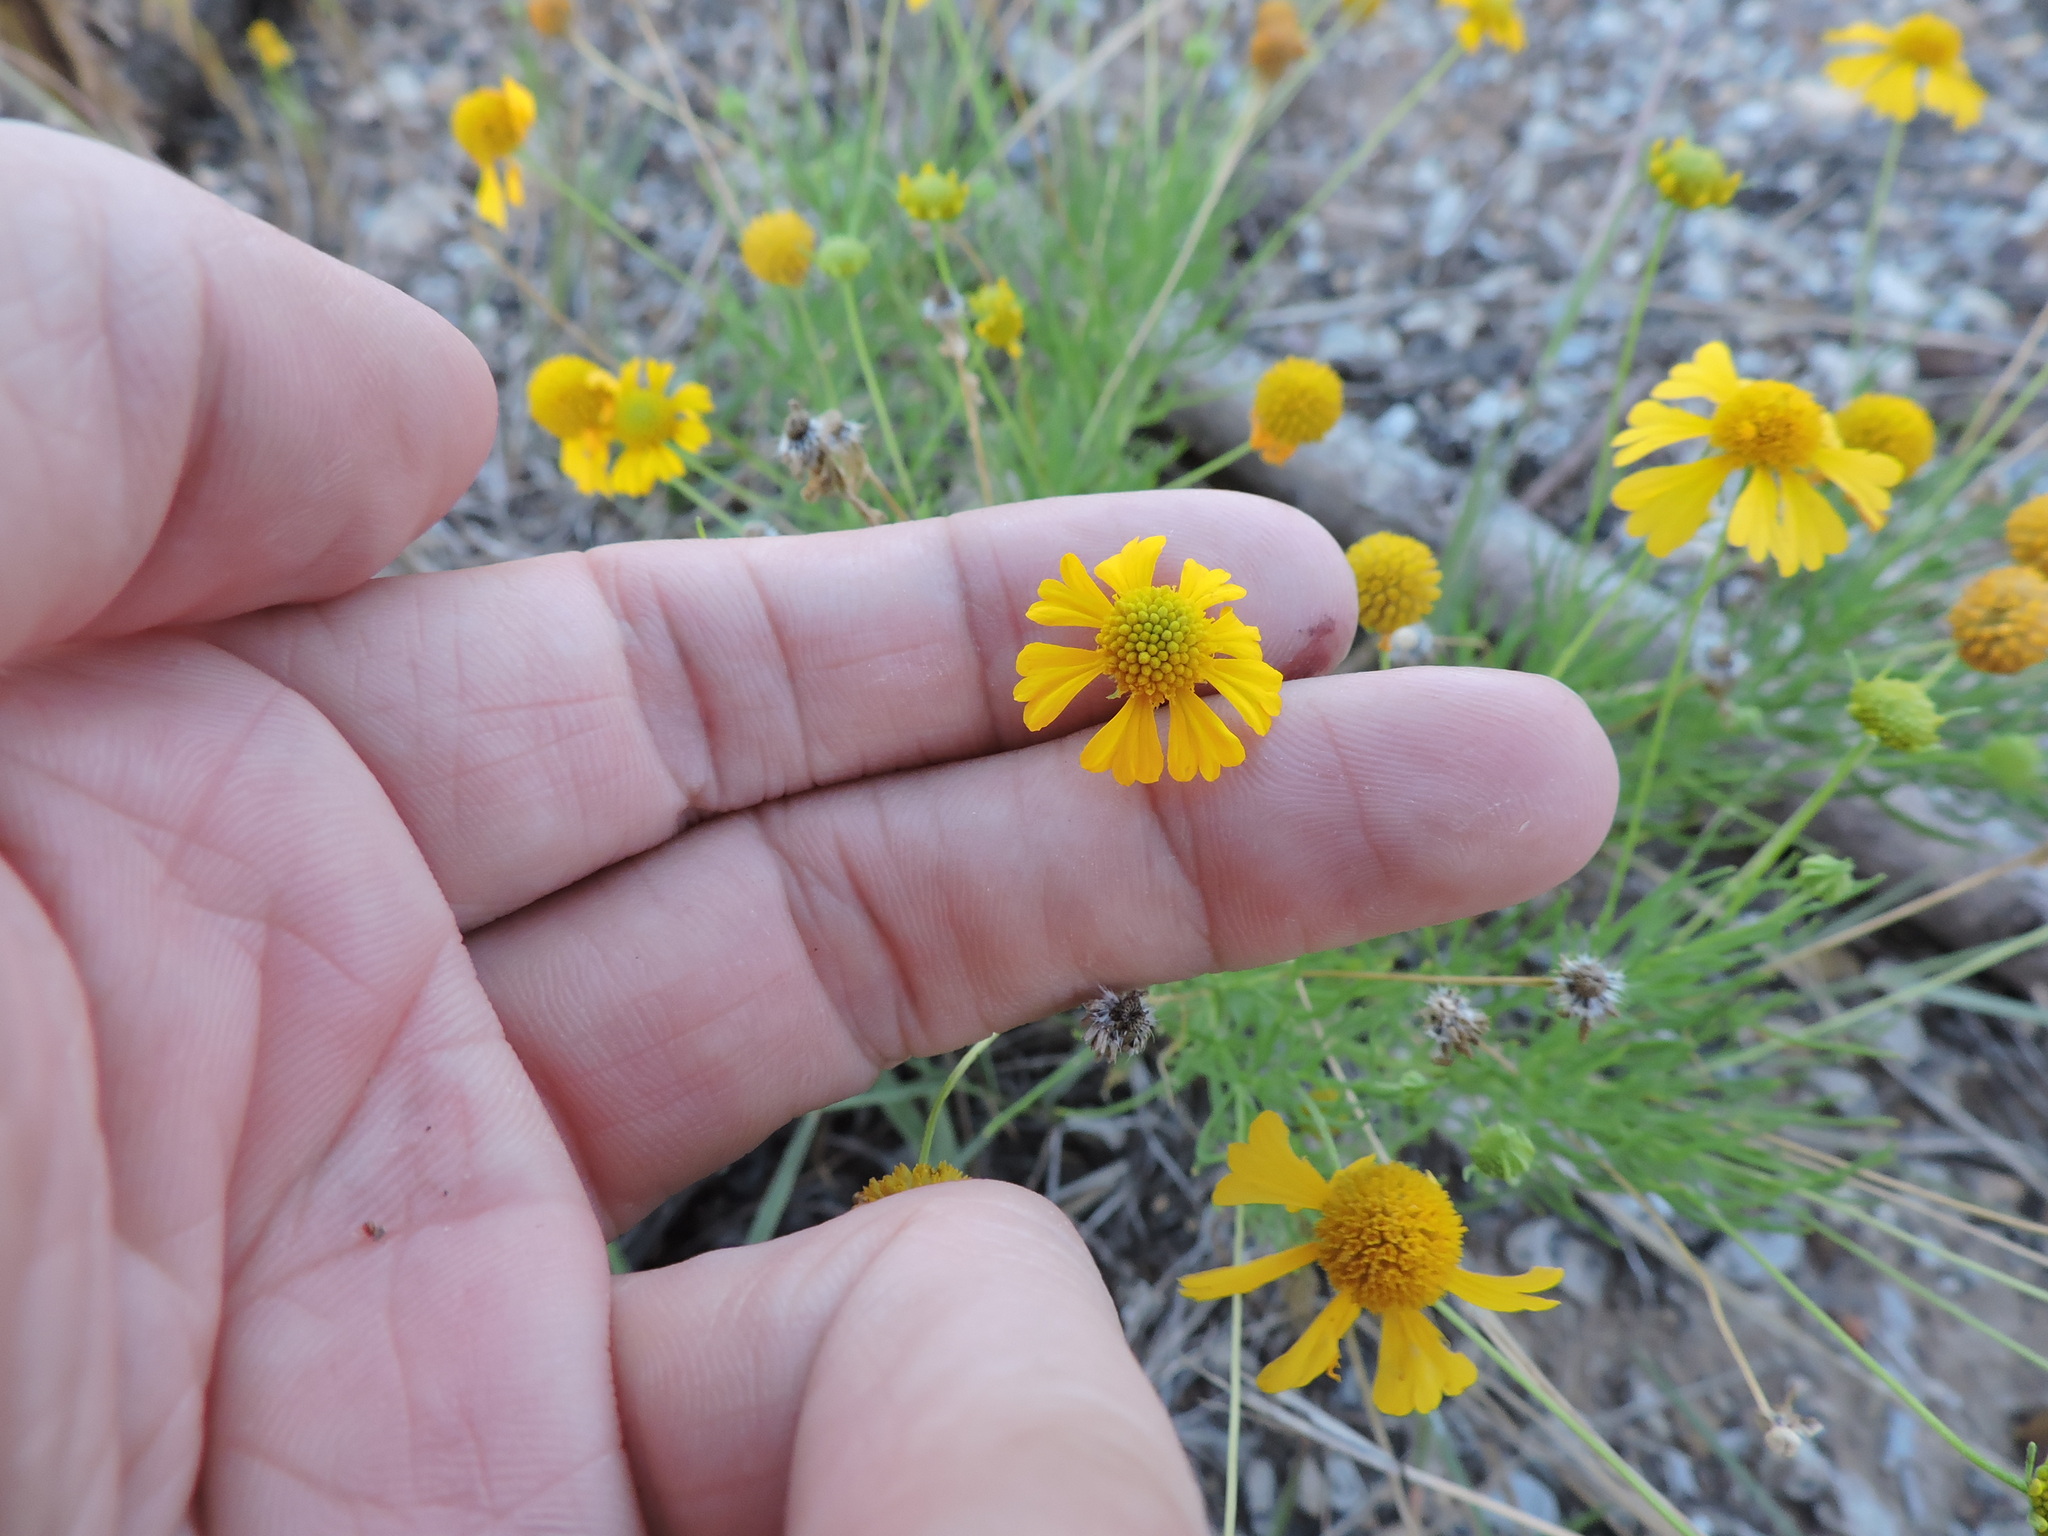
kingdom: Plantae
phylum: Tracheophyta
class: Magnoliopsida
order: Asterales
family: Asteraceae
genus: Helenium
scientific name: Helenium amarum
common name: Bitter sneezeweed
